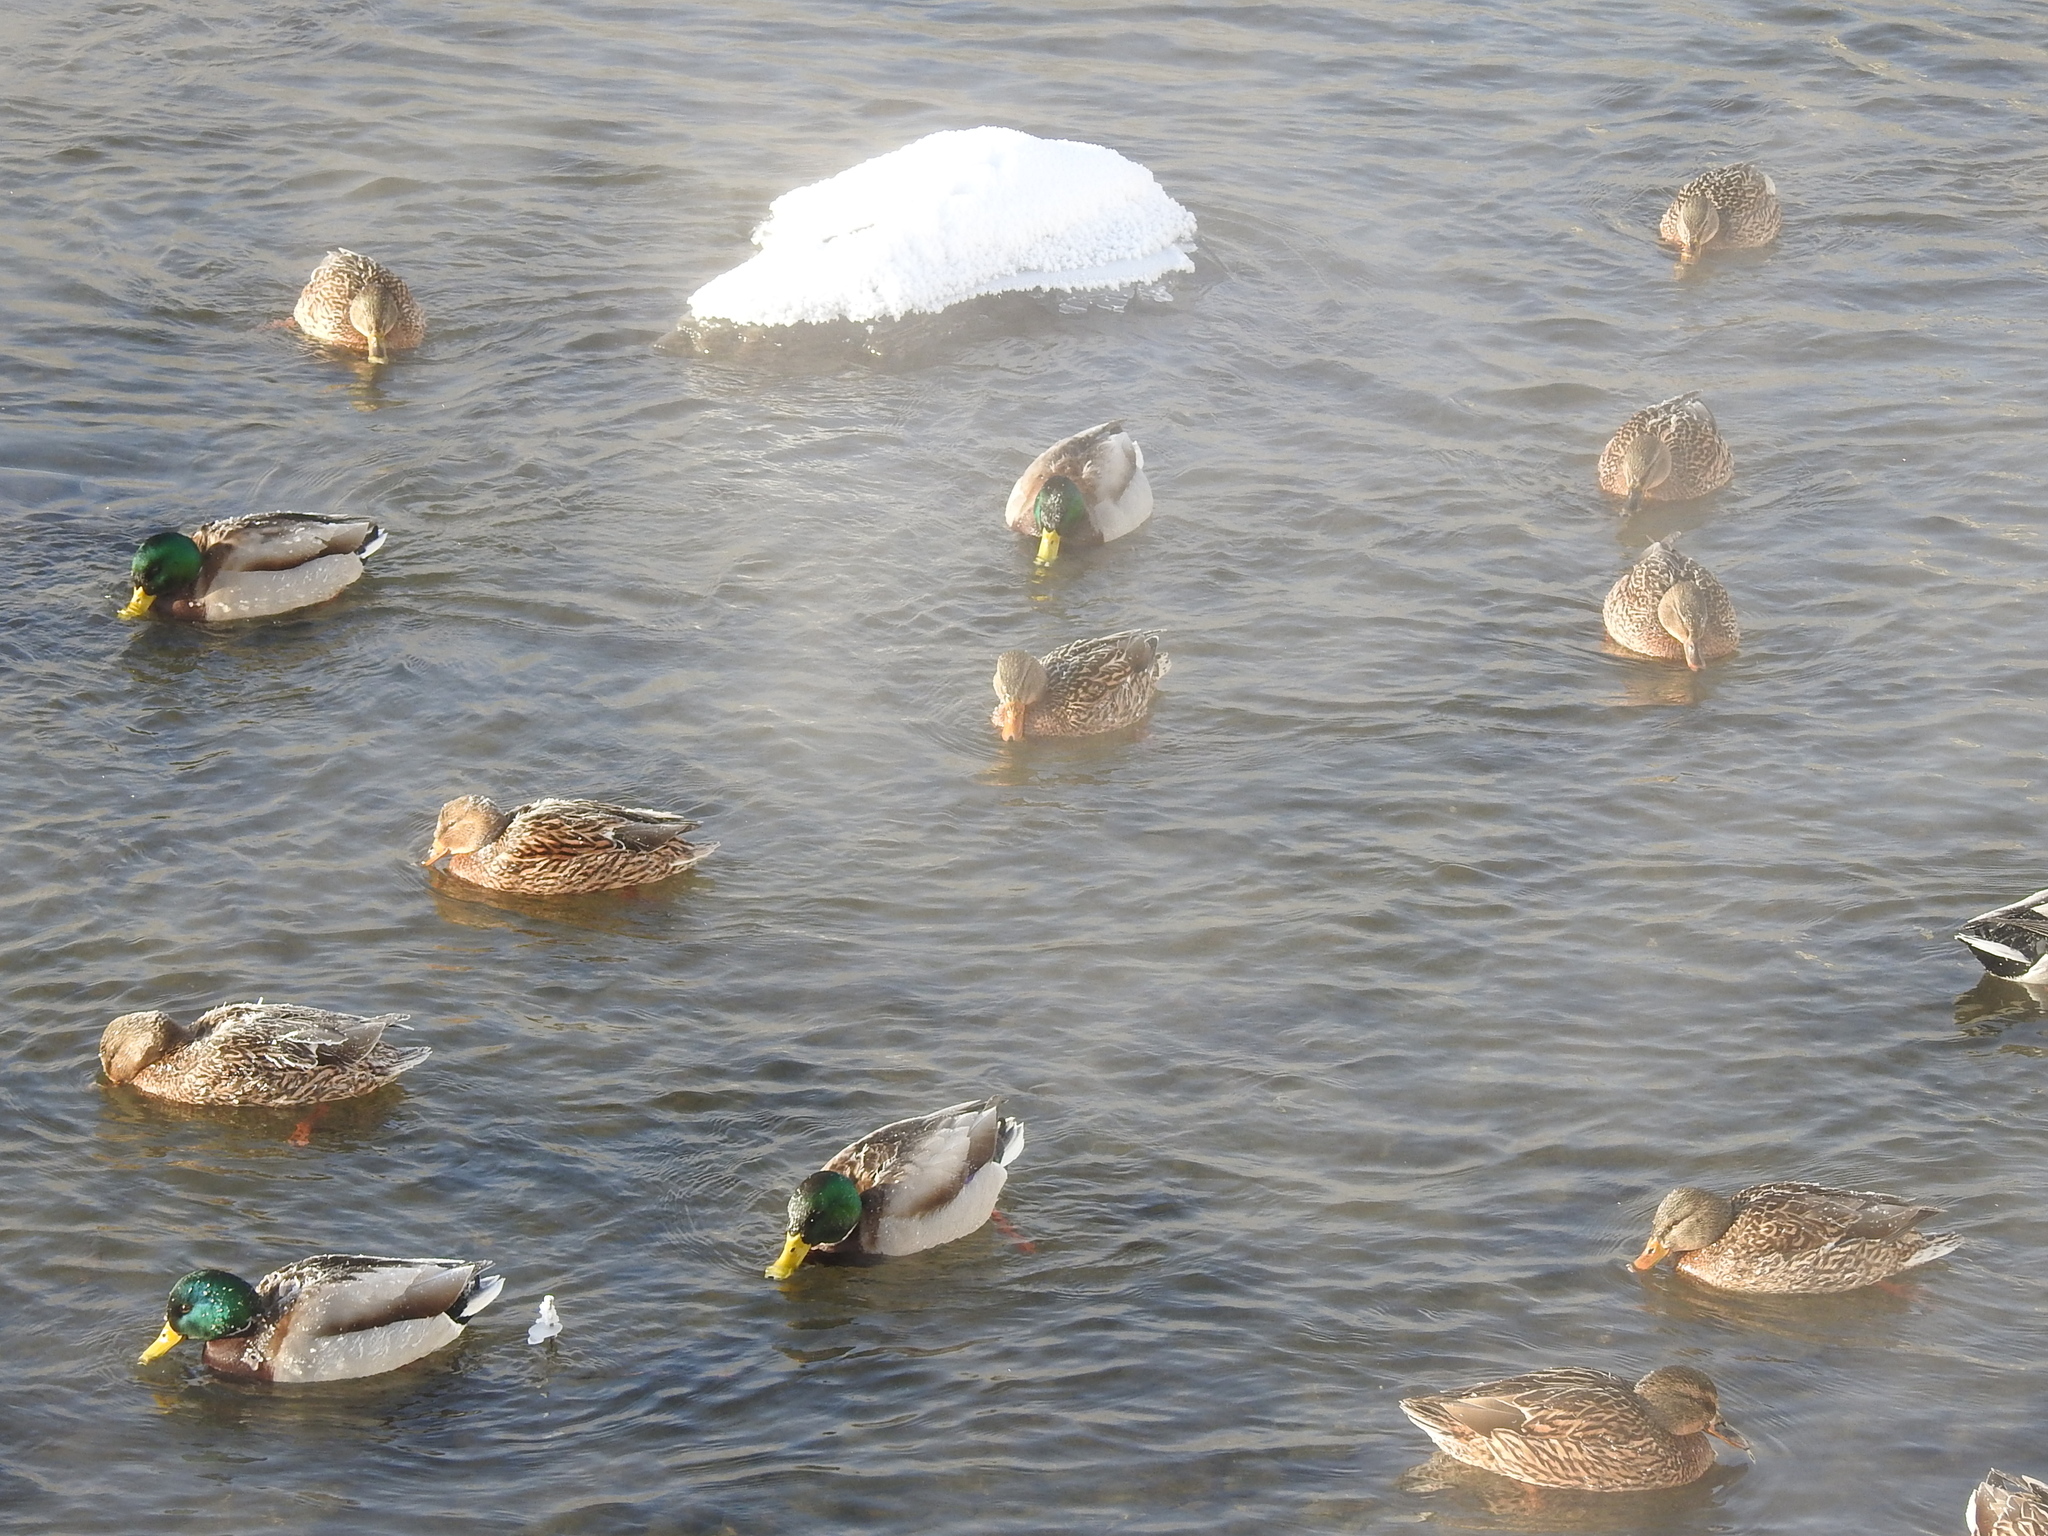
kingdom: Animalia
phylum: Chordata
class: Aves
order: Anseriformes
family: Anatidae
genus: Anas
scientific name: Anas platyrhynchos
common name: Mallard
